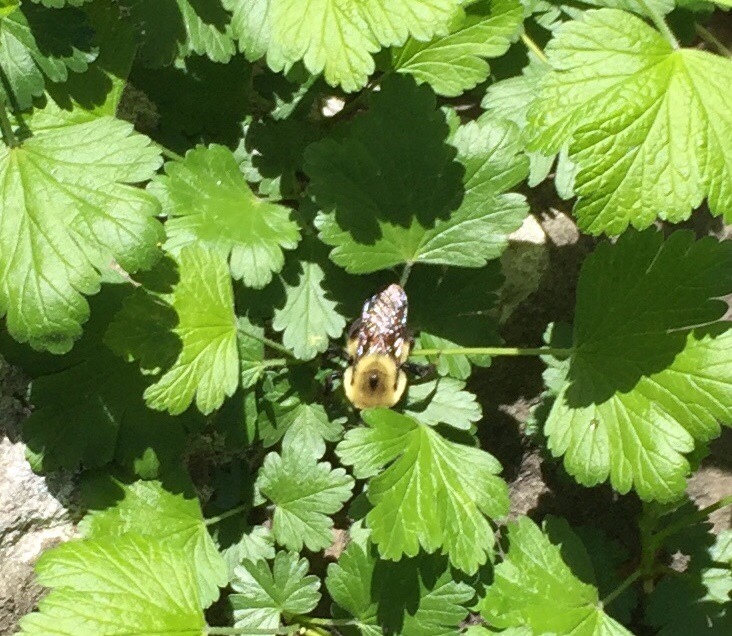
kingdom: Animalia
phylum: Arthropoda
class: Insecta
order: Hymenoptera
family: Apidae
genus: Bombus
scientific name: Bombus griseocollis
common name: Brown-belted bumble bee
